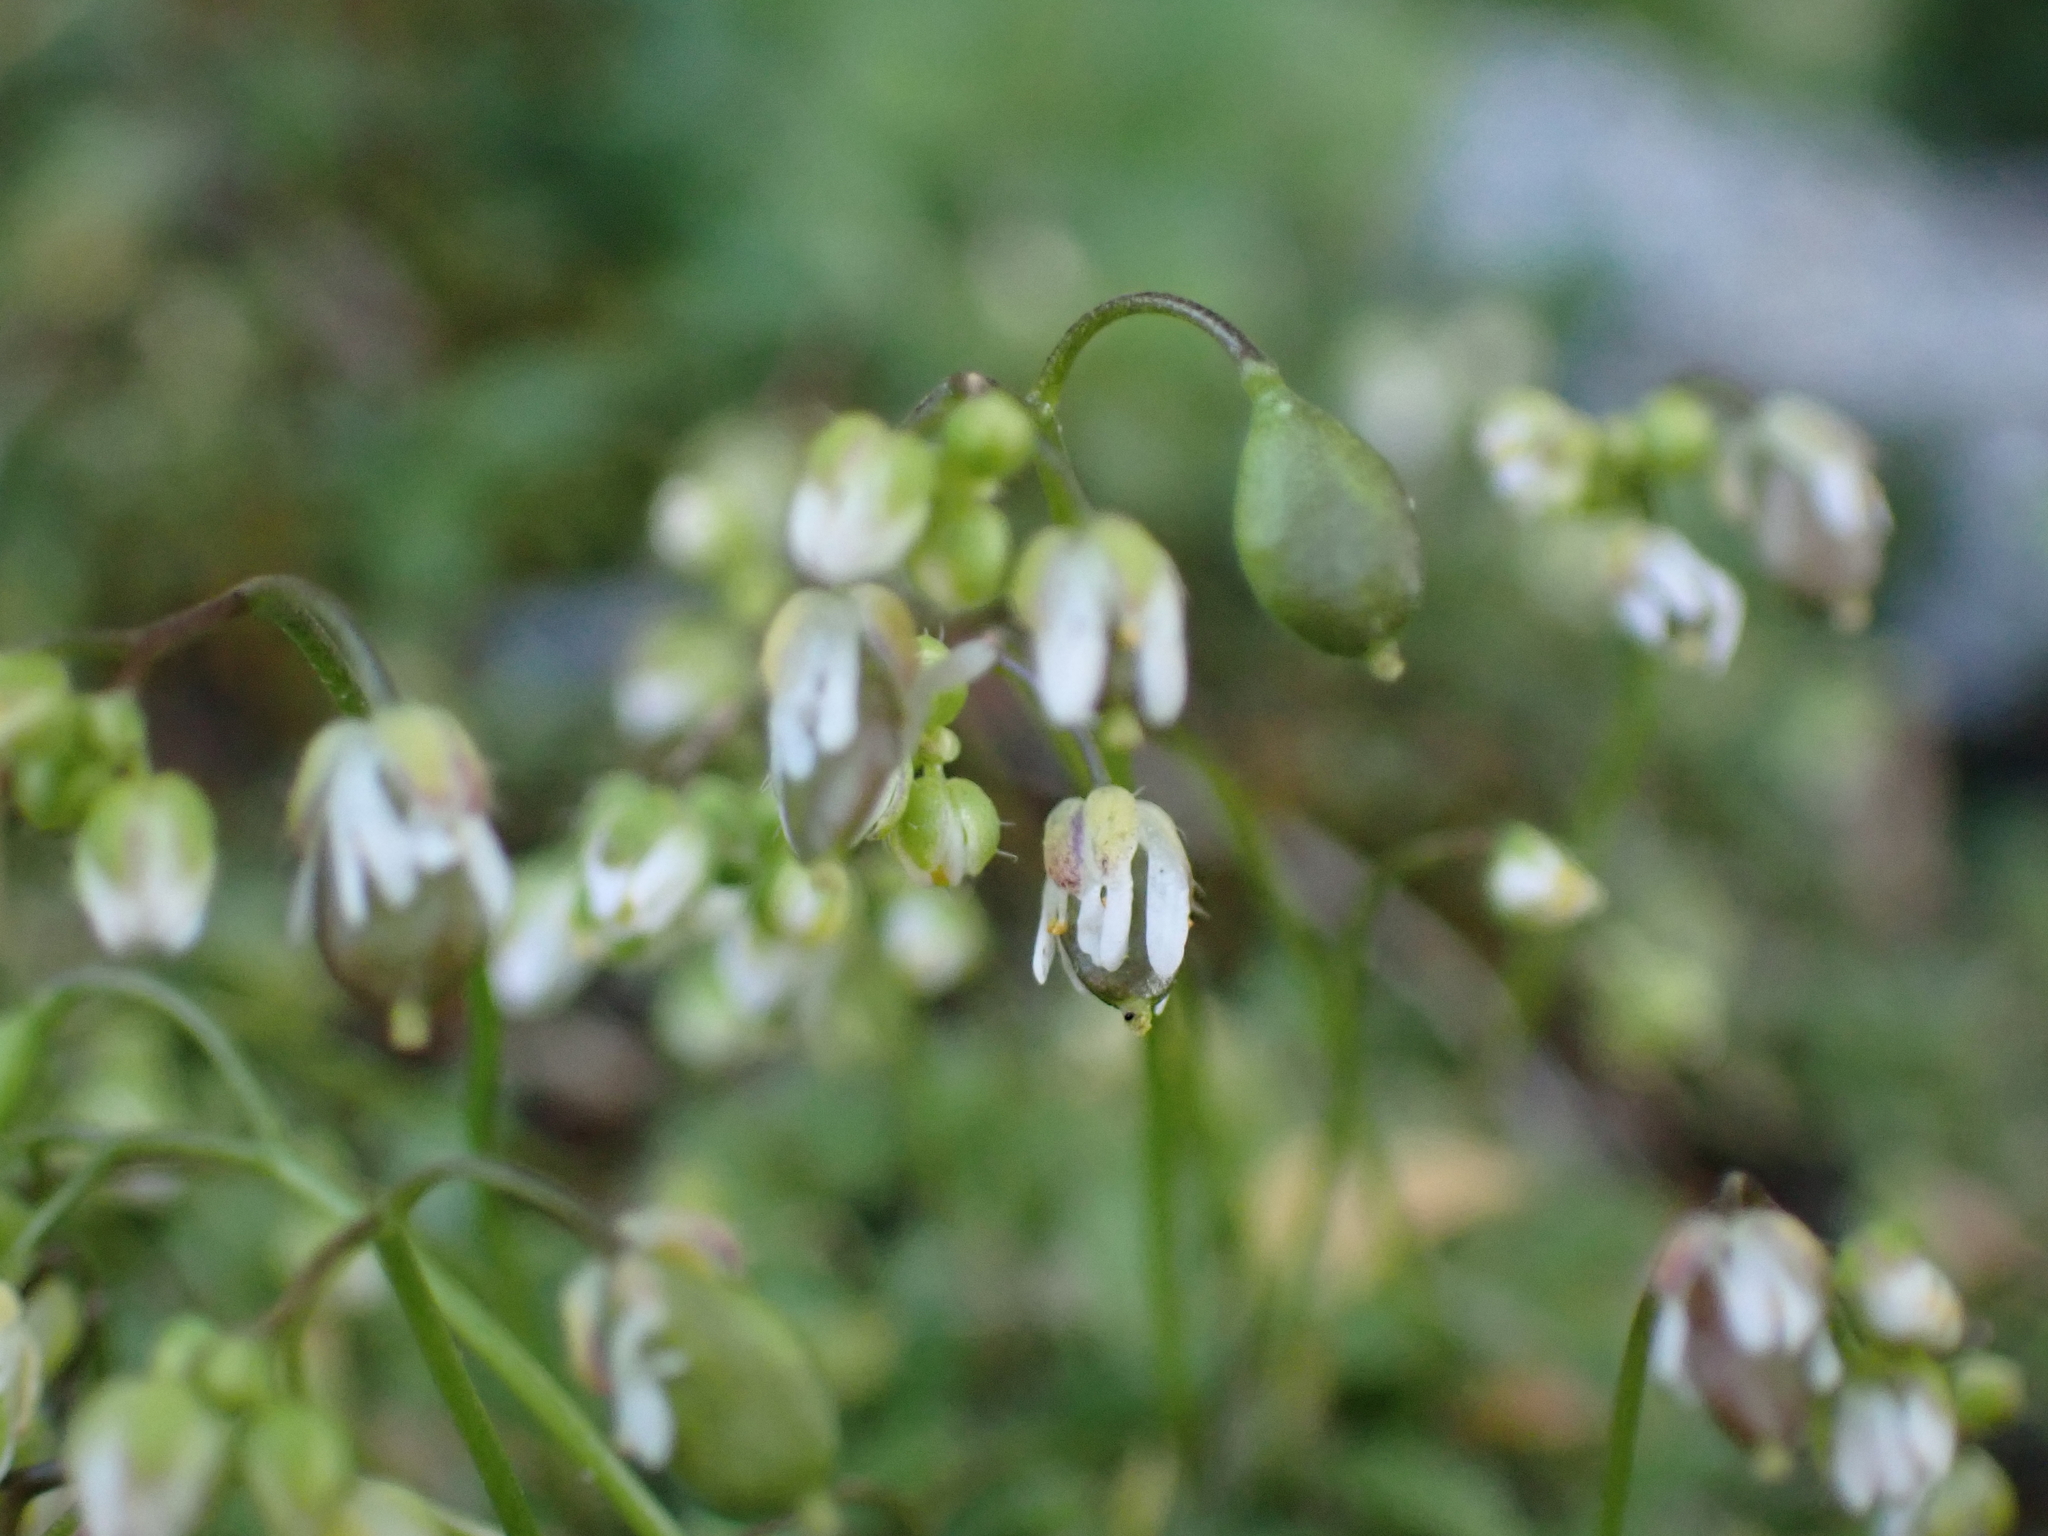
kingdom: Plantae
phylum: Tracheophyta
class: Magnoliopsida
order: Brassicales
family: Brassicaceae
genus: Draba
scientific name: Draba verna
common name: Spring draba
